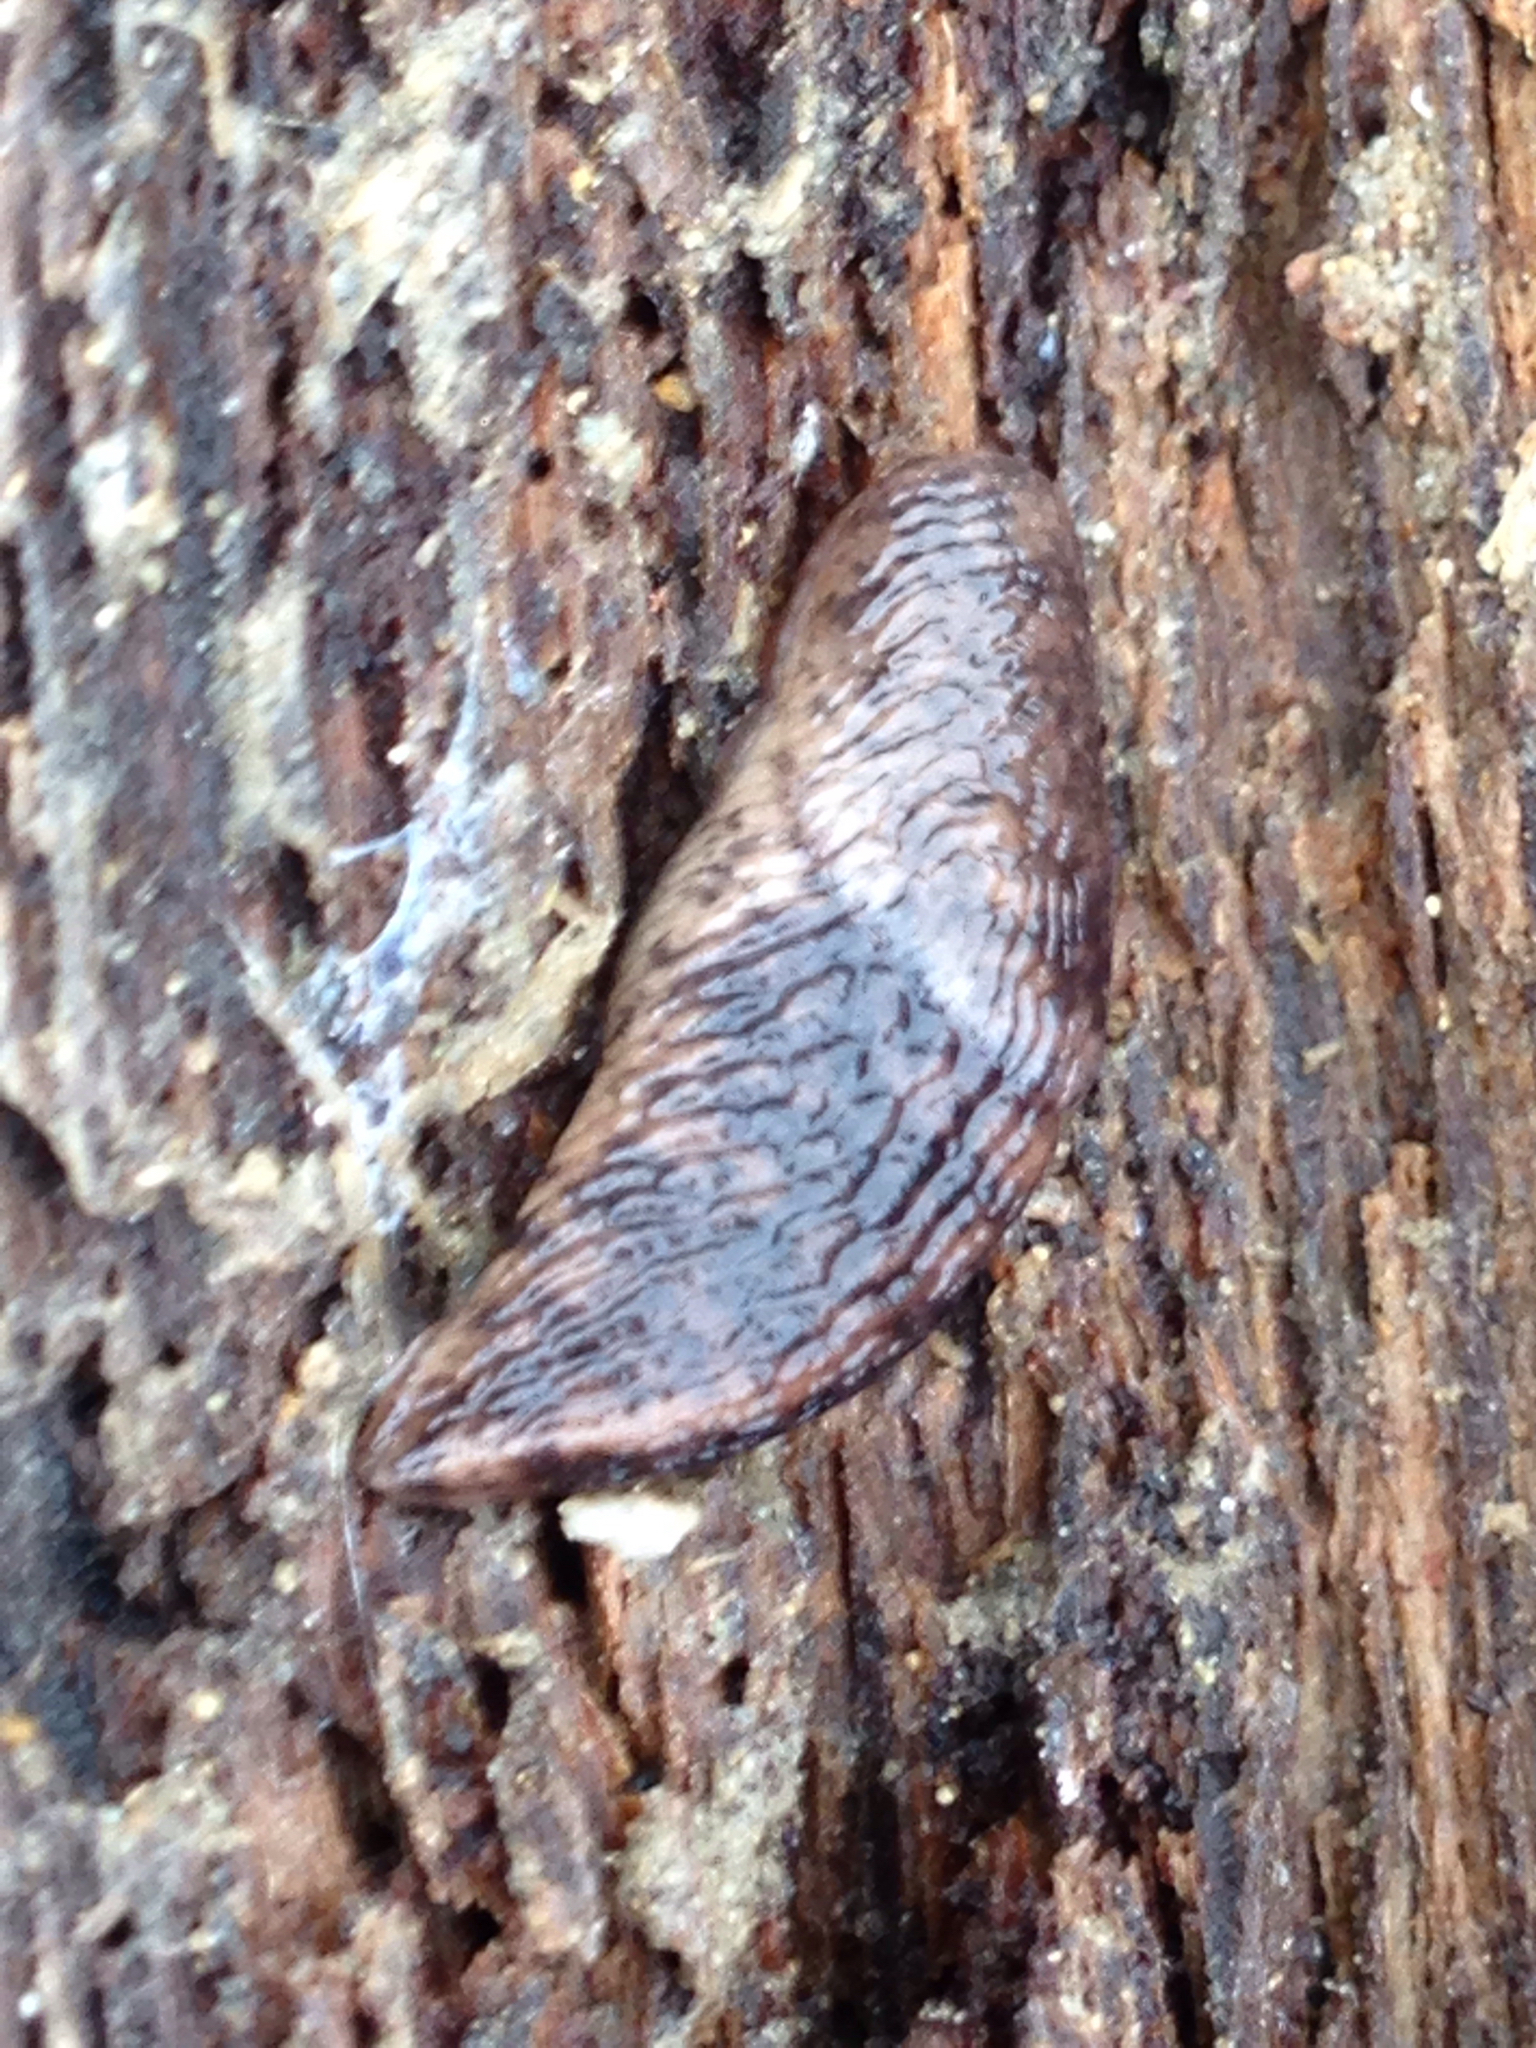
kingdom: Animalia
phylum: Mollusca
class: Gastropoda
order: Stylommatophora
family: Agriolimacidae
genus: Deroceras
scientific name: Deroceras reticulatum
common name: Gray field slug
